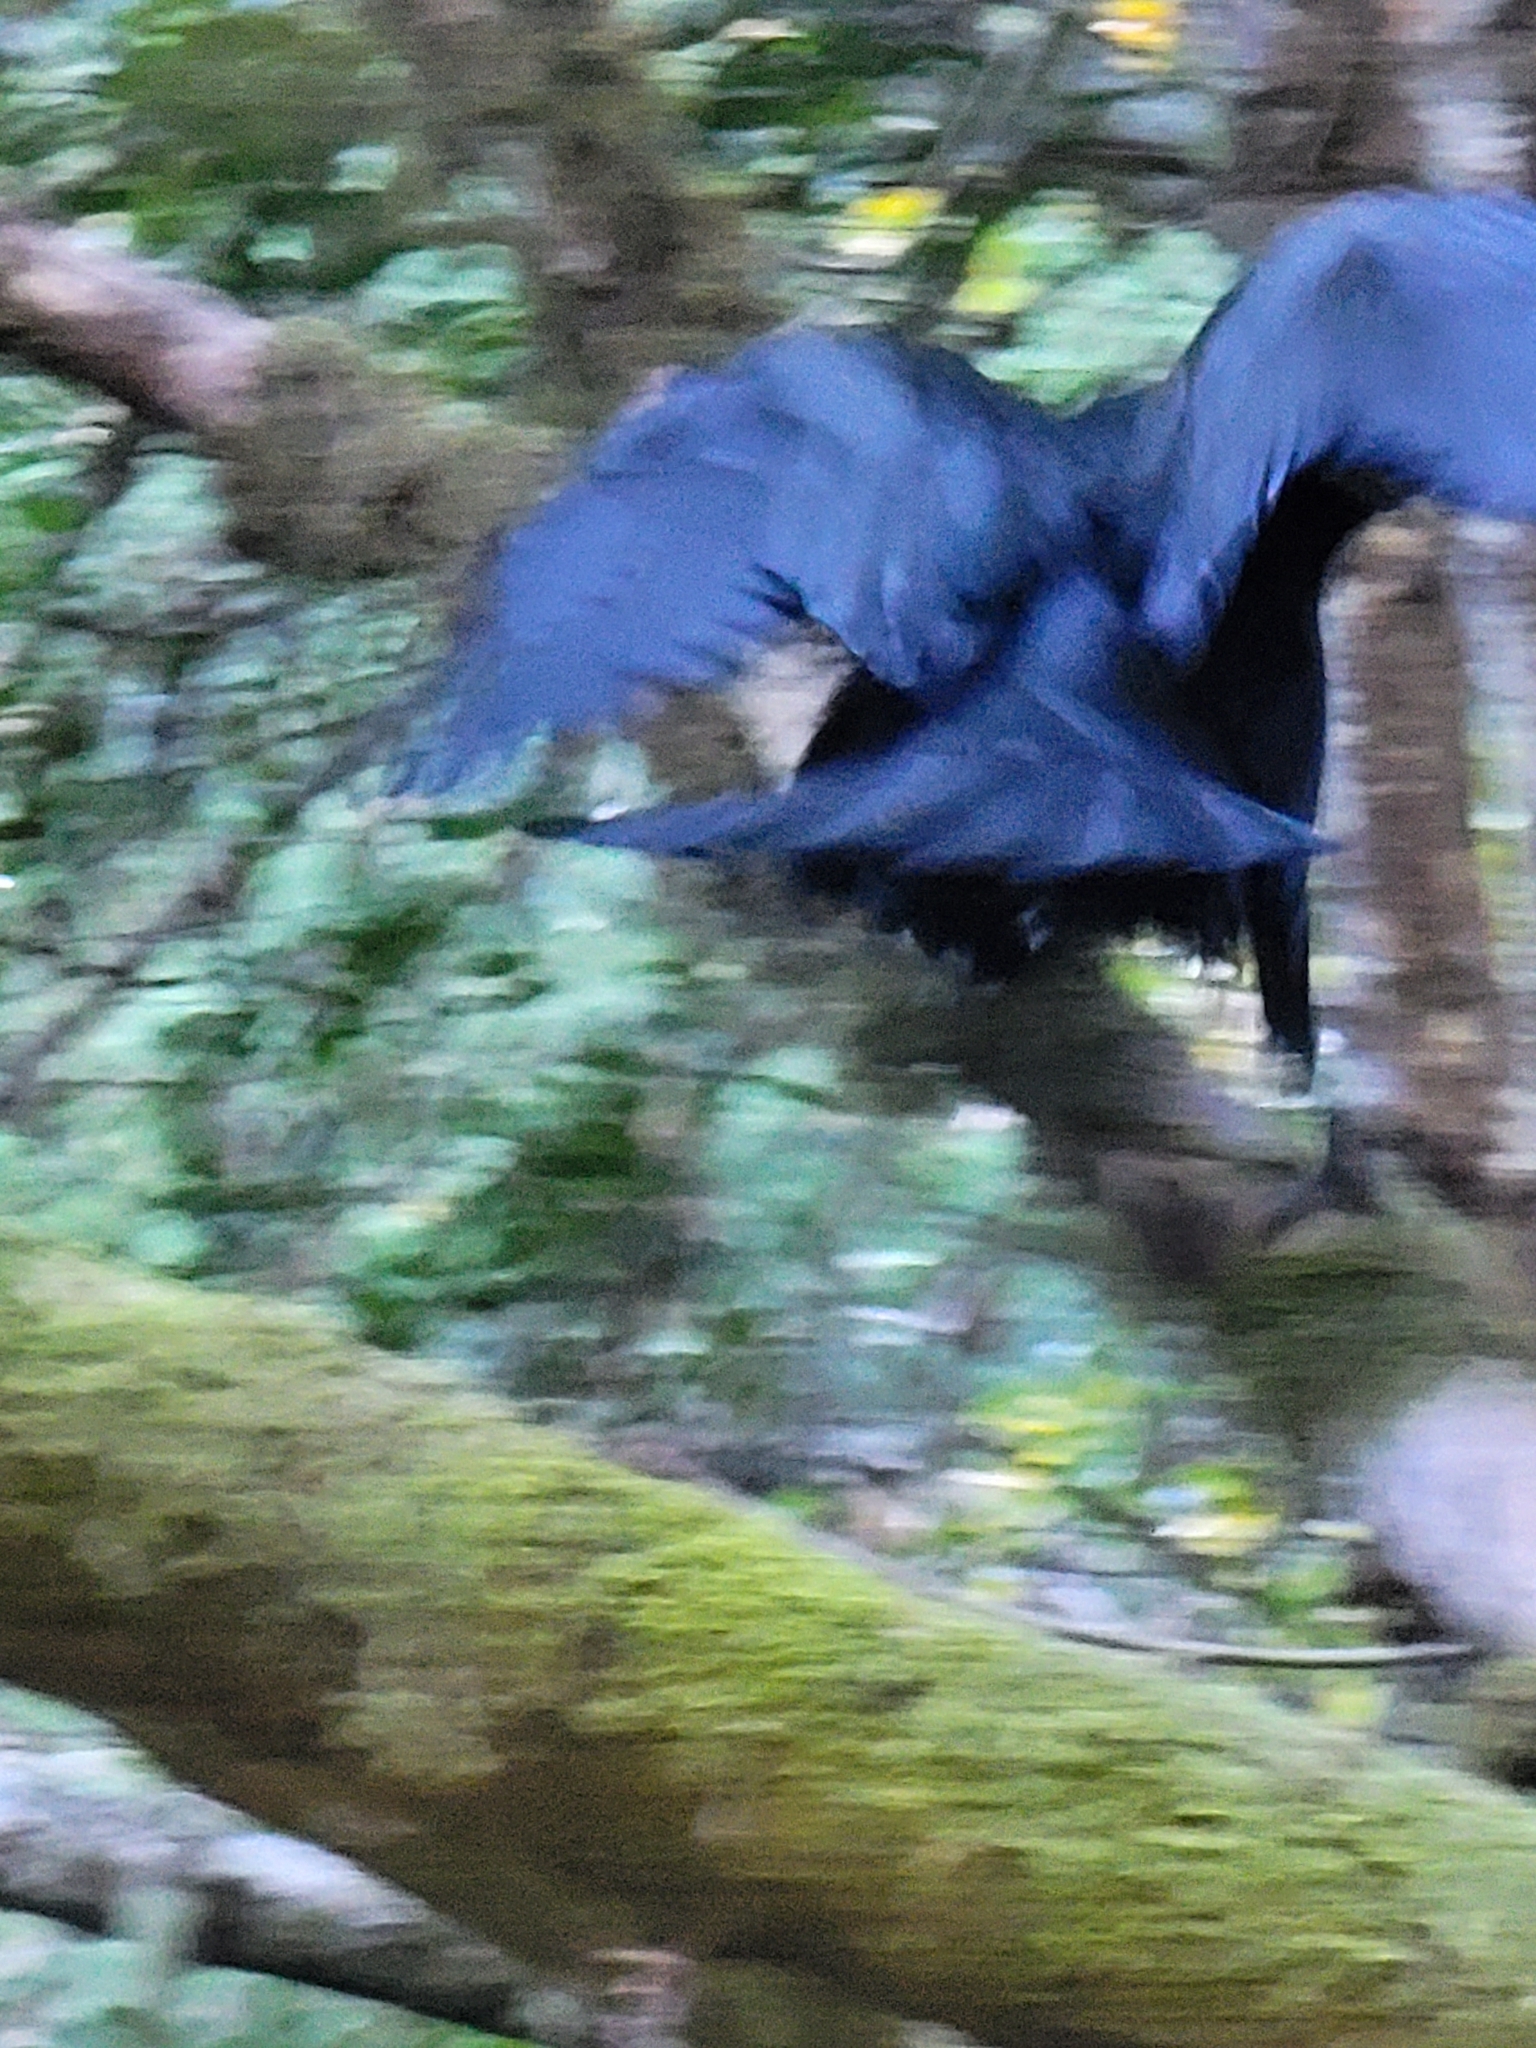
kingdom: Animalia
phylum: Chordata
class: Aves
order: Passeriformes
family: Corvidae
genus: Corvus
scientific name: Corvus corax
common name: Common raven
